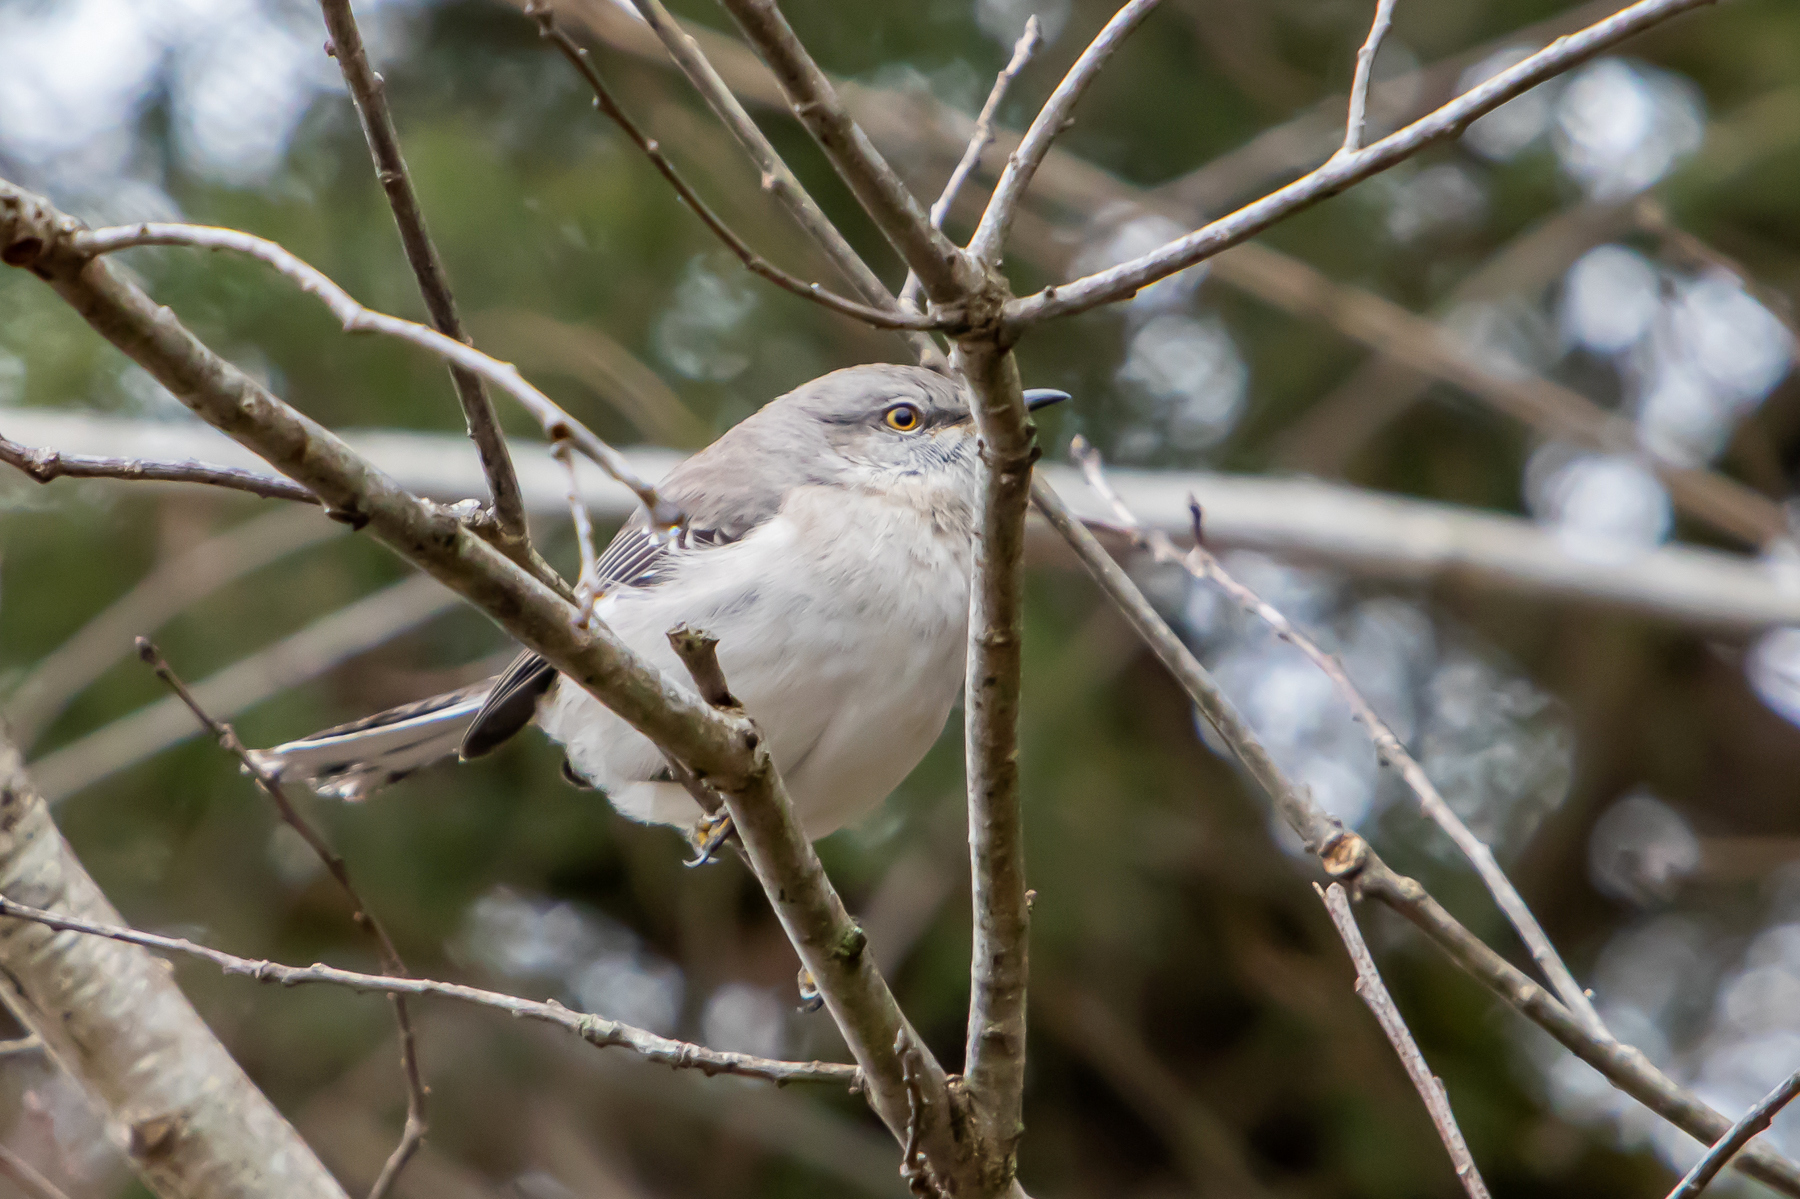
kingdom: Animalia
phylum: Chordata
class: Aves
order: Passeriformes
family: Mimidae
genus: Mimus
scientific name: Mimus polyglottos
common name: Northern mockingbird
